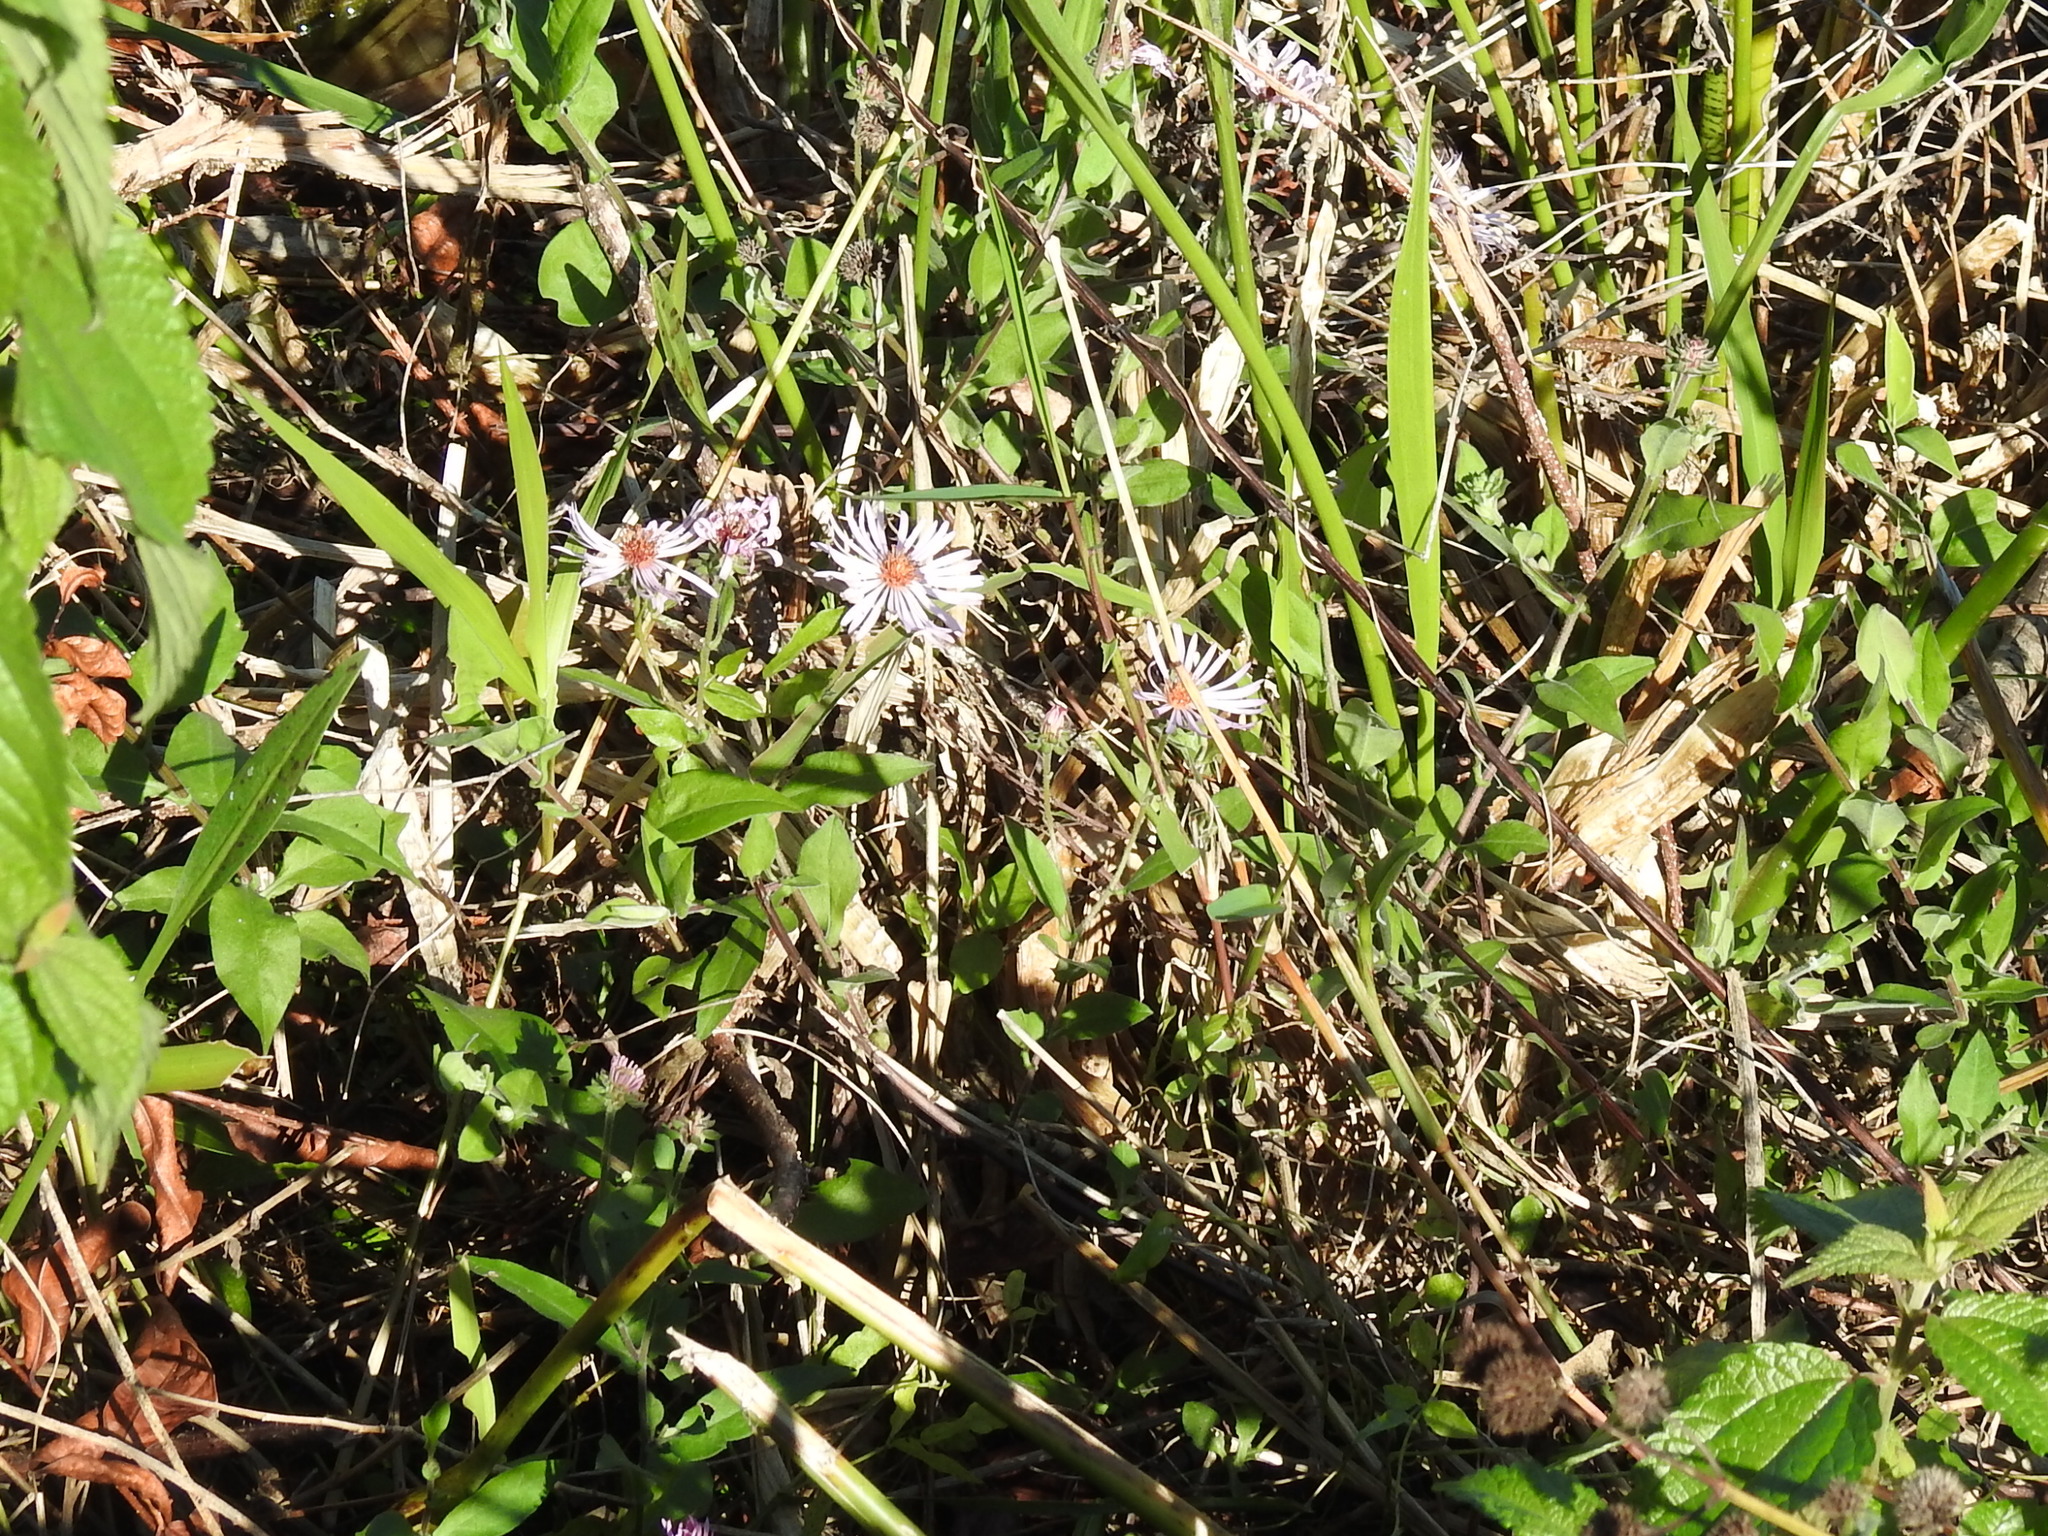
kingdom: Plantae
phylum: Tracheophyta
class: Magnoliopsida
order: Asterales
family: Asteraceae
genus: Ampelaster
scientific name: Ampelaster carolinianus
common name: Climbing aster
